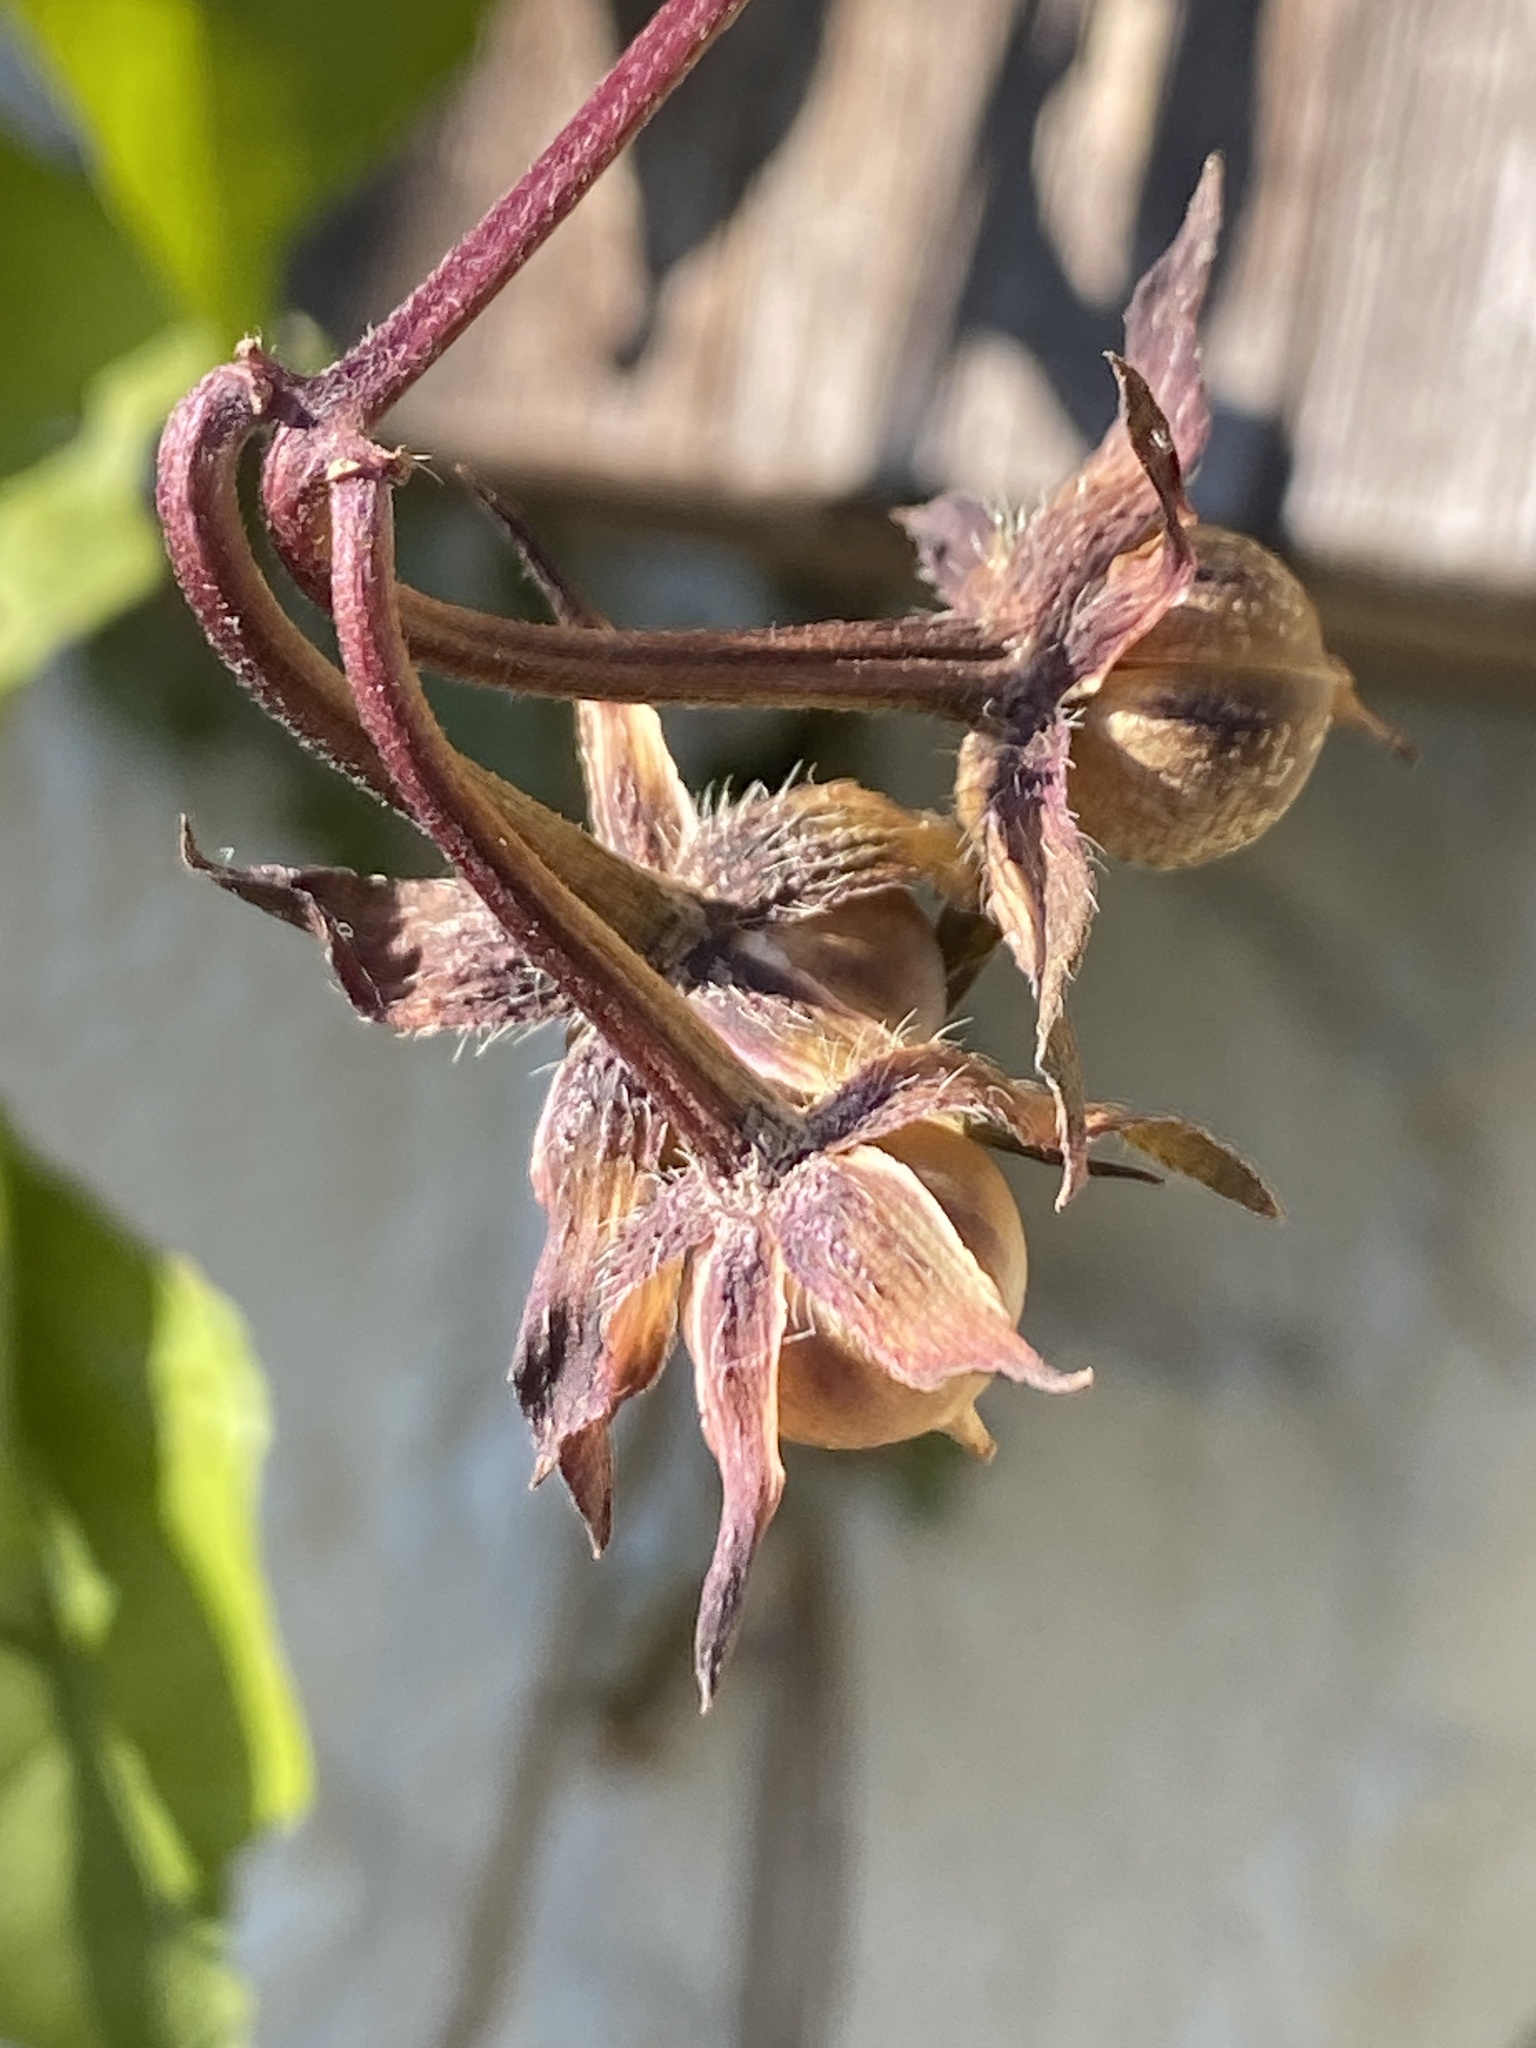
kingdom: Plantae
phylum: Tracheophyta
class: Magnoliopsida
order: Solanales
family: Convolvulaceae
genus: Ipomoea
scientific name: Ipomoea purpurea
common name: Common morning-glory
